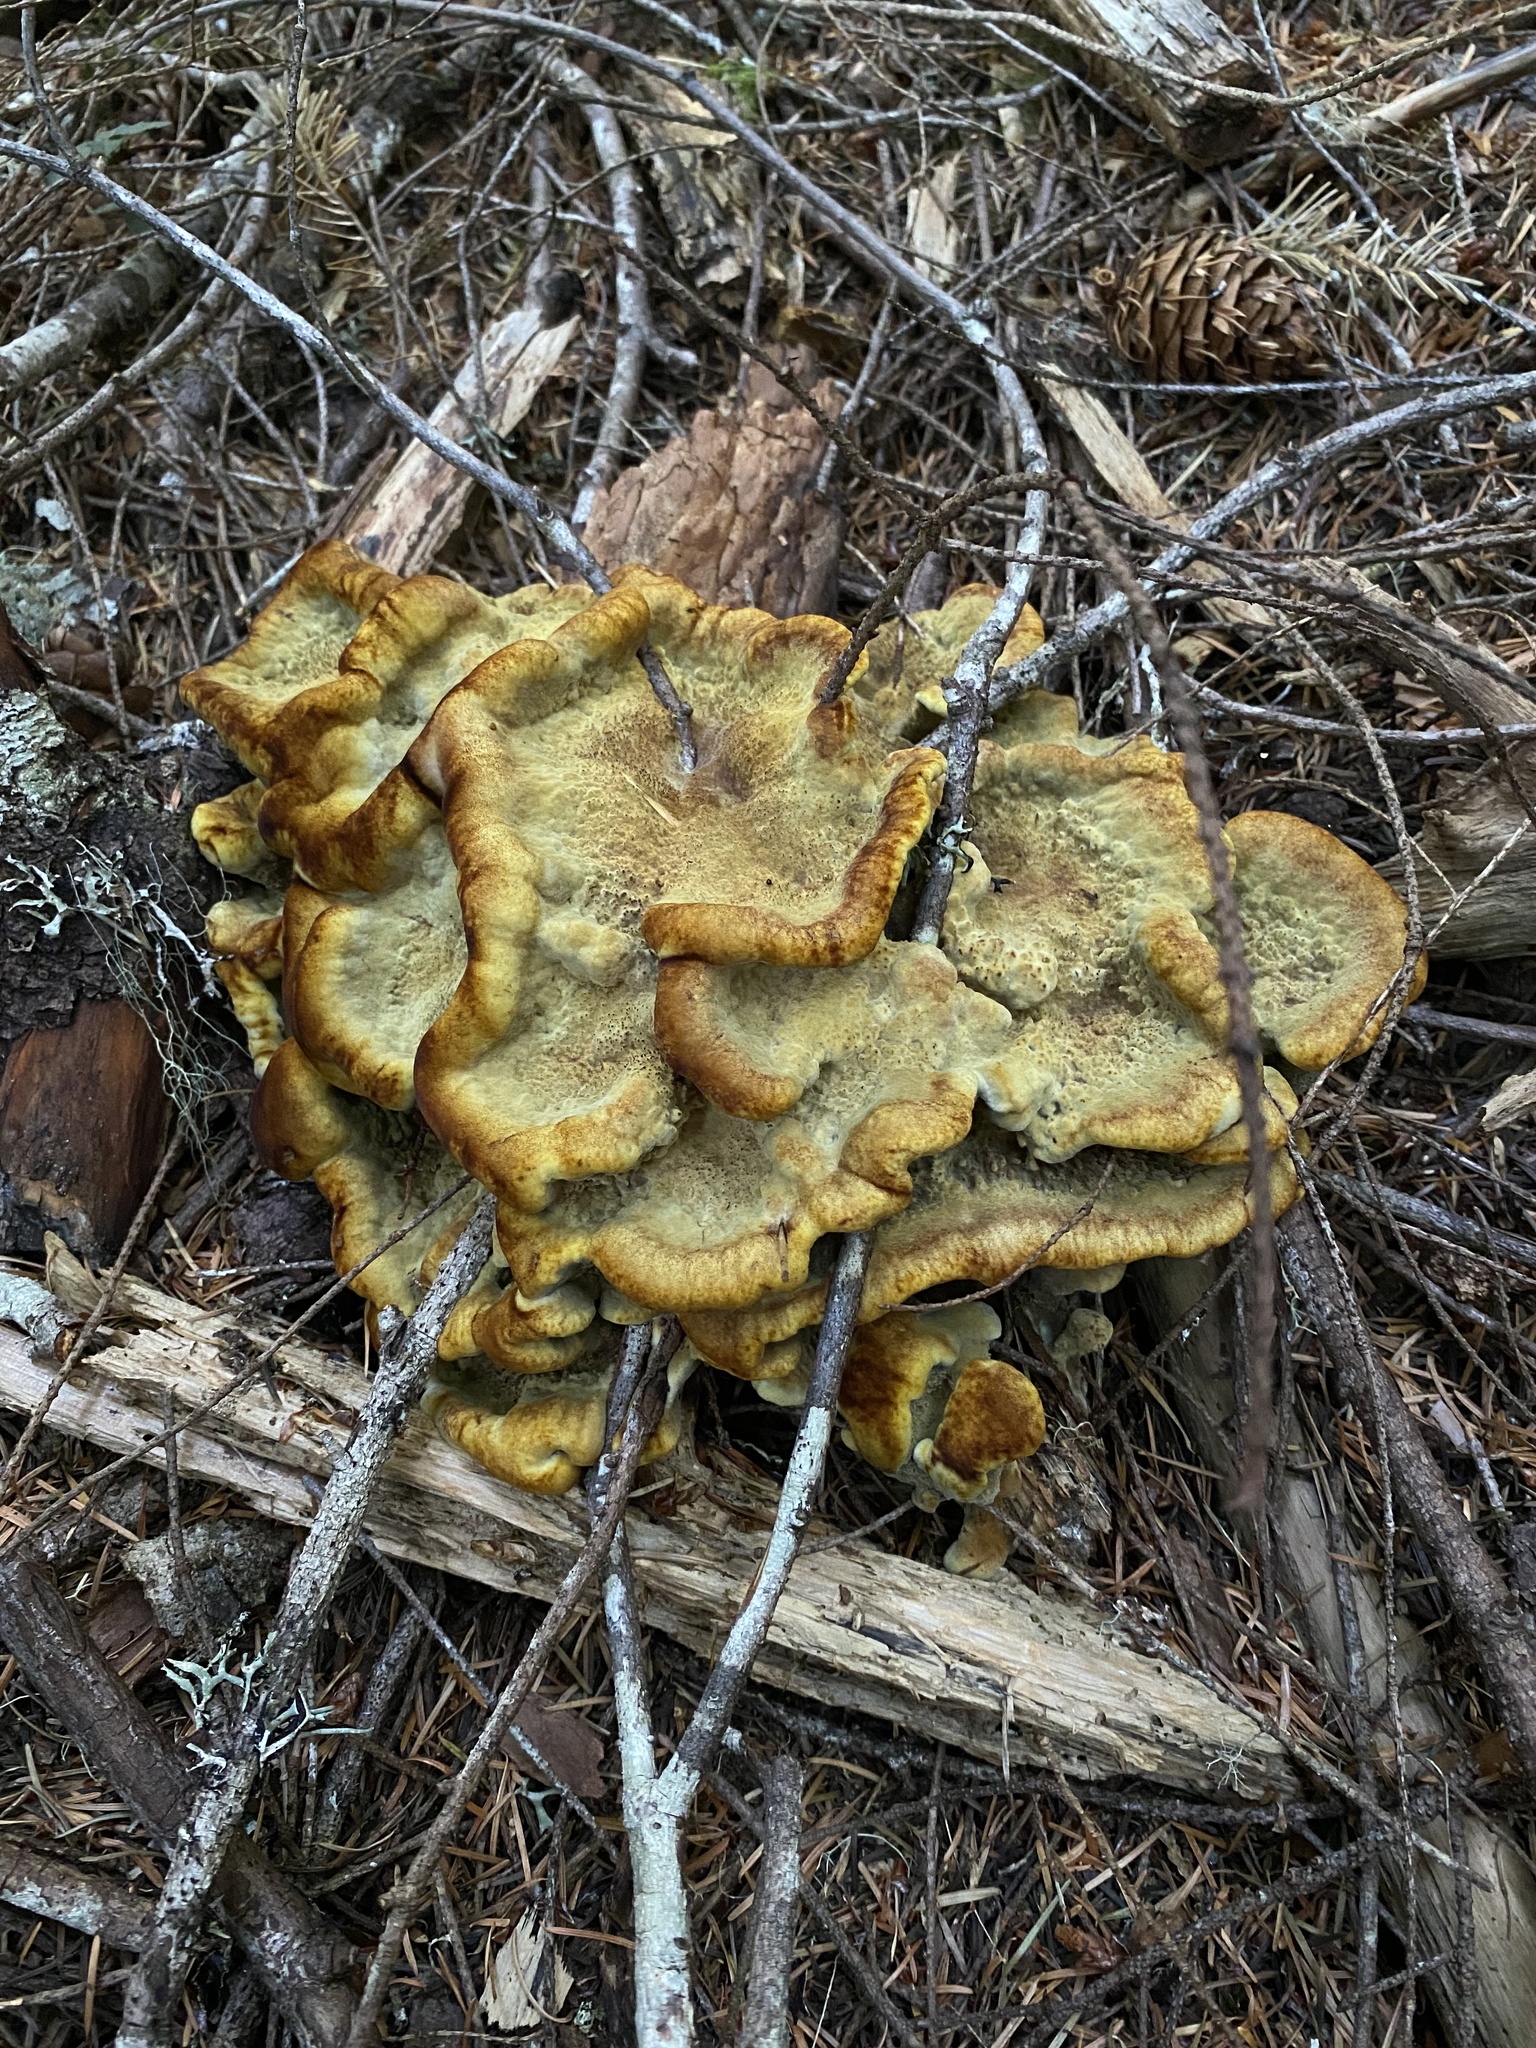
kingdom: Fungi
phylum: Basidiomycota
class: Agaricomycetes
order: Polyporales
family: Laetiporaceae
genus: Phaeolus
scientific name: Phaeolus schweinitzii
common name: Dyer's mazegill
